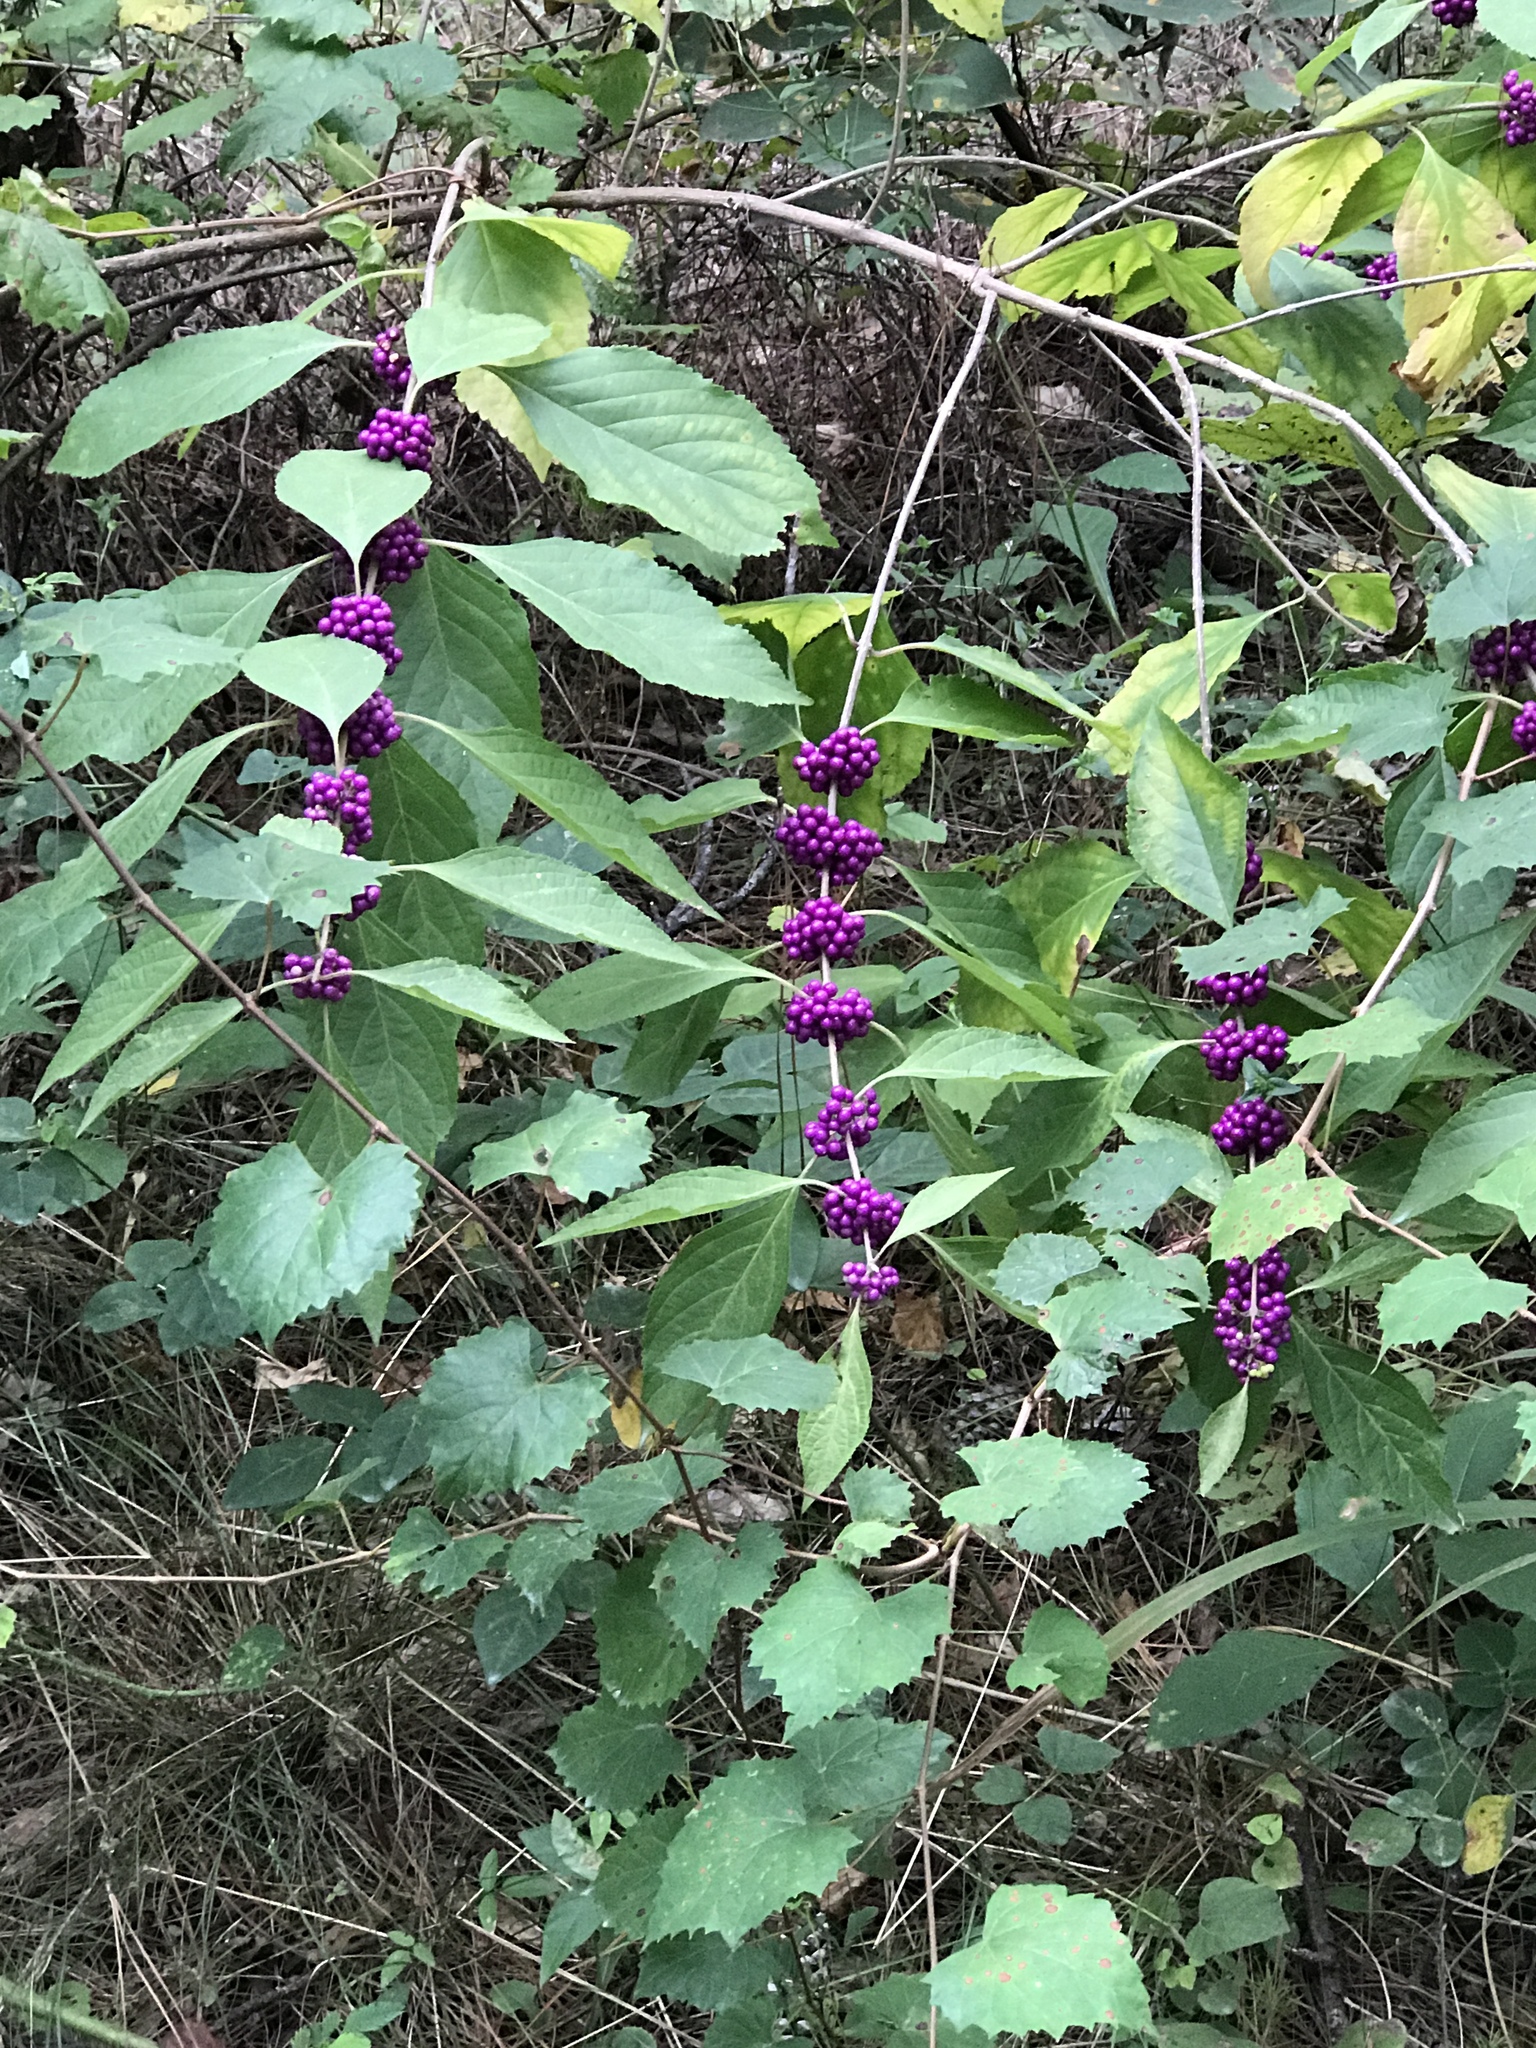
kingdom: Plantae
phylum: Tracheophyta
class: Magnoliopsida
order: Lamiales
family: Lamiaceae
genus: Callicarpa
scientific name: Callicarpa americana
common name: American beautyberry
